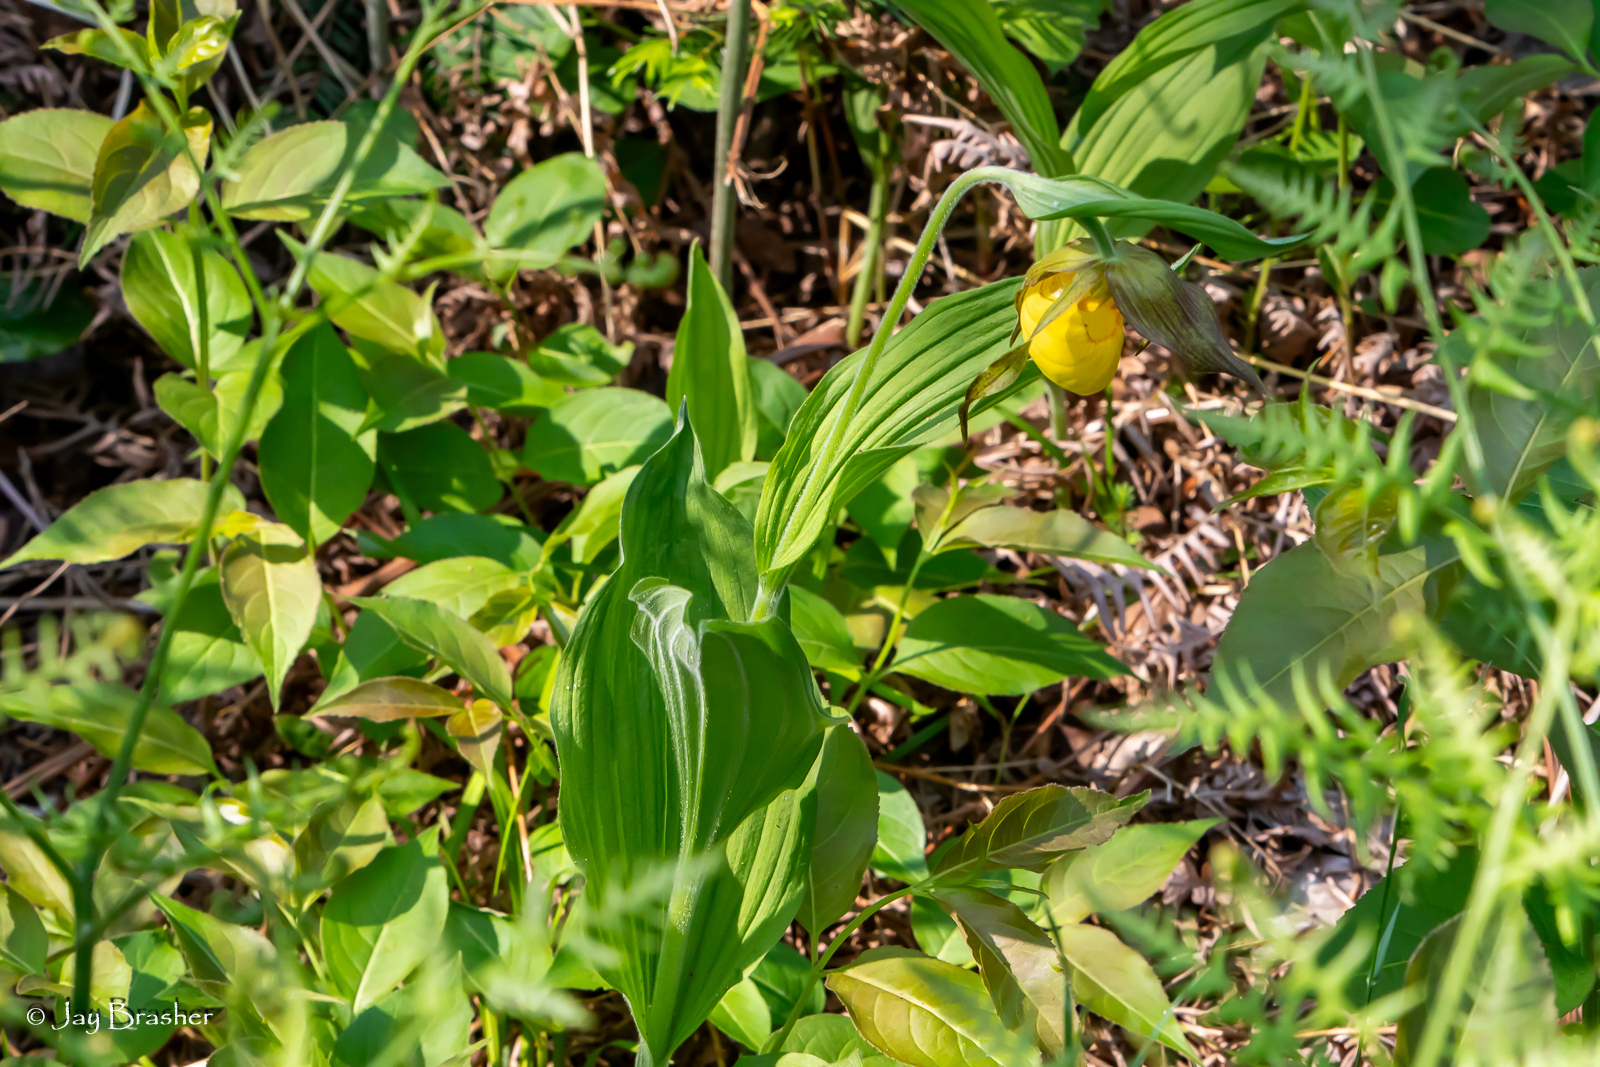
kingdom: Plantae
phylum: Tracheophyta
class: Liliopsida
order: Asparagales
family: Orchidaceae
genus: Cypripedium
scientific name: Cypripedium parviflorum
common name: American yellow lady's-slipper
